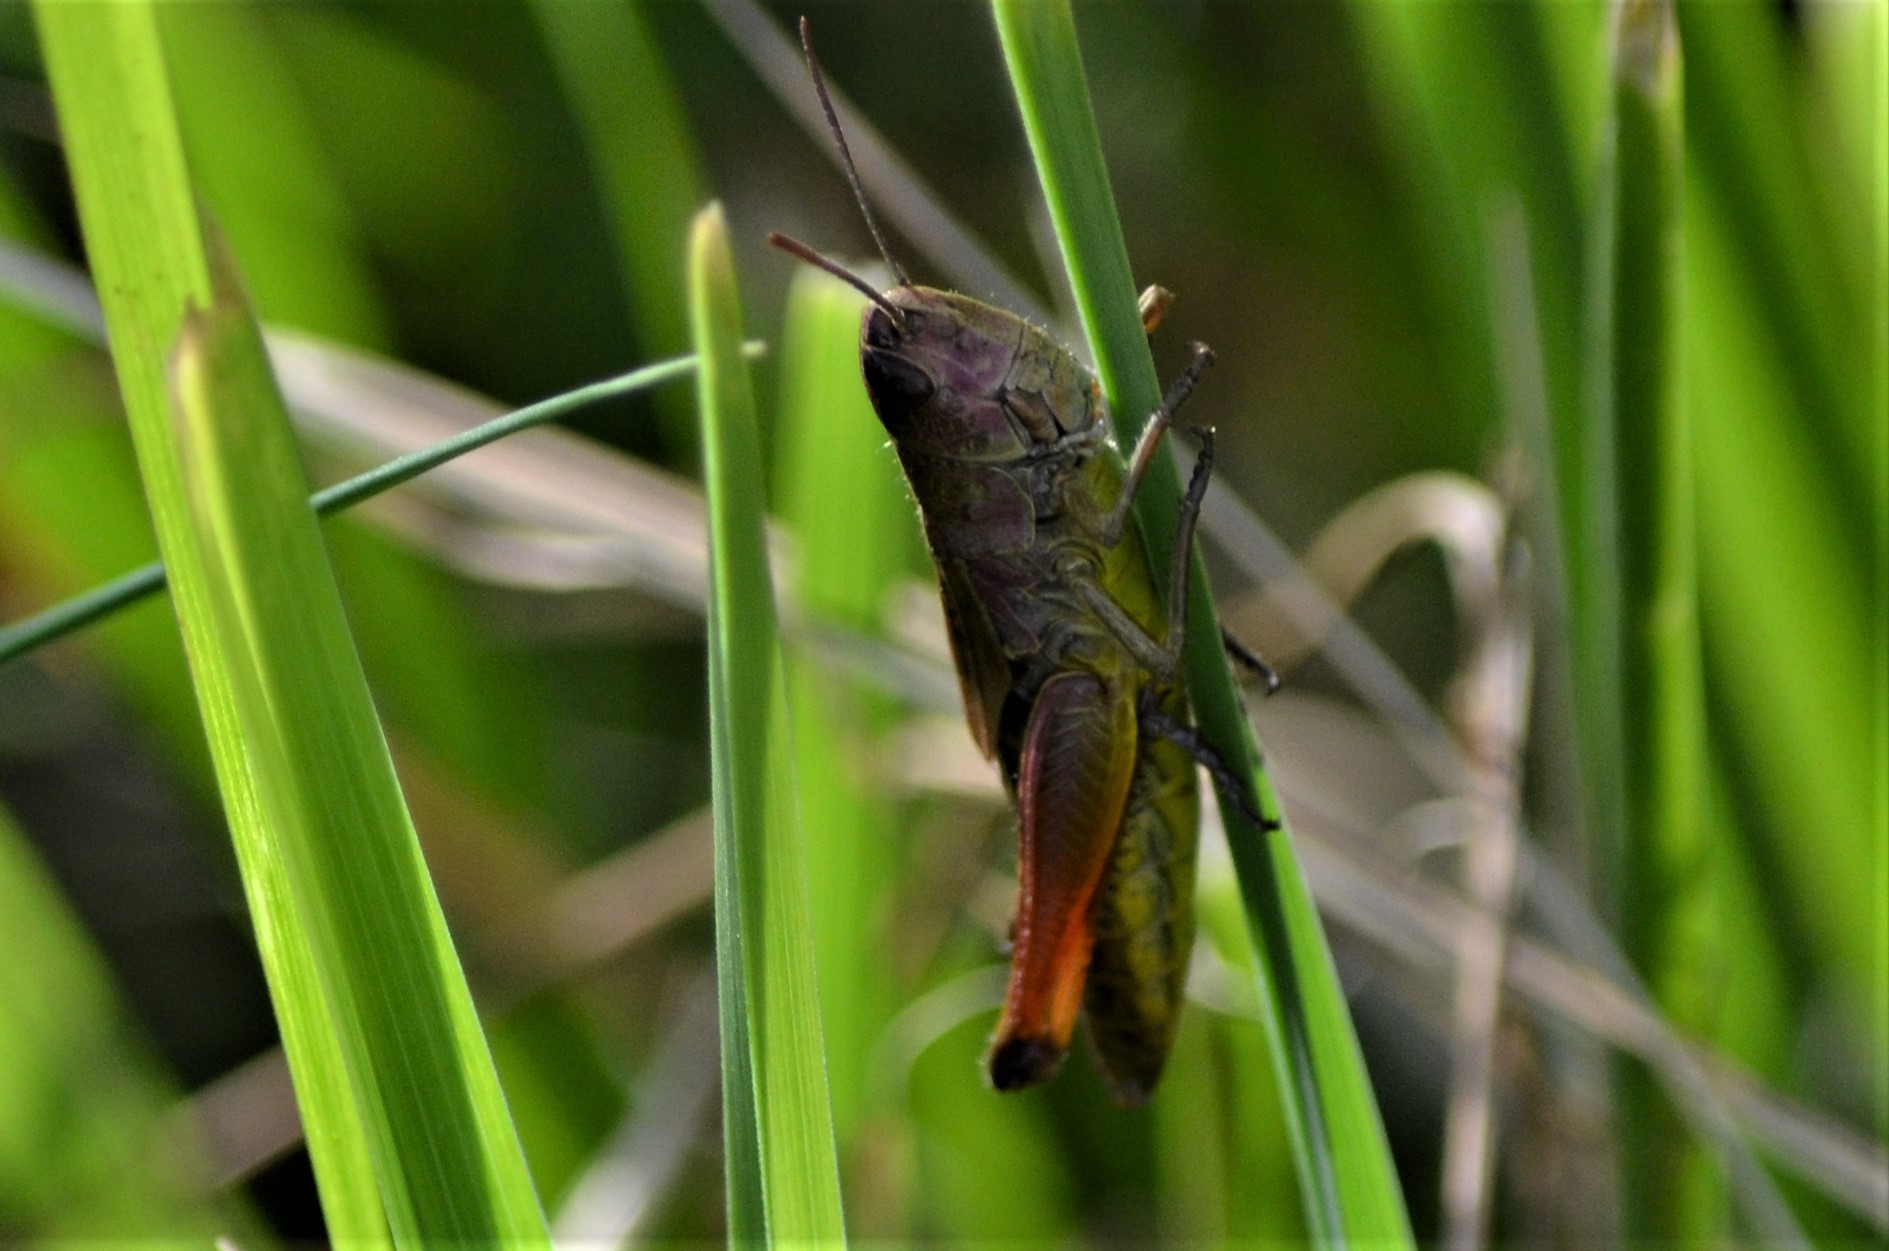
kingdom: Animalia
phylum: Arthropoda
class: Insecta
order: Orthoptera
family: Acrididae
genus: Pseudochorthippus
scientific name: Pseudochorthippus parallelus
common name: Meadow grasshopper
